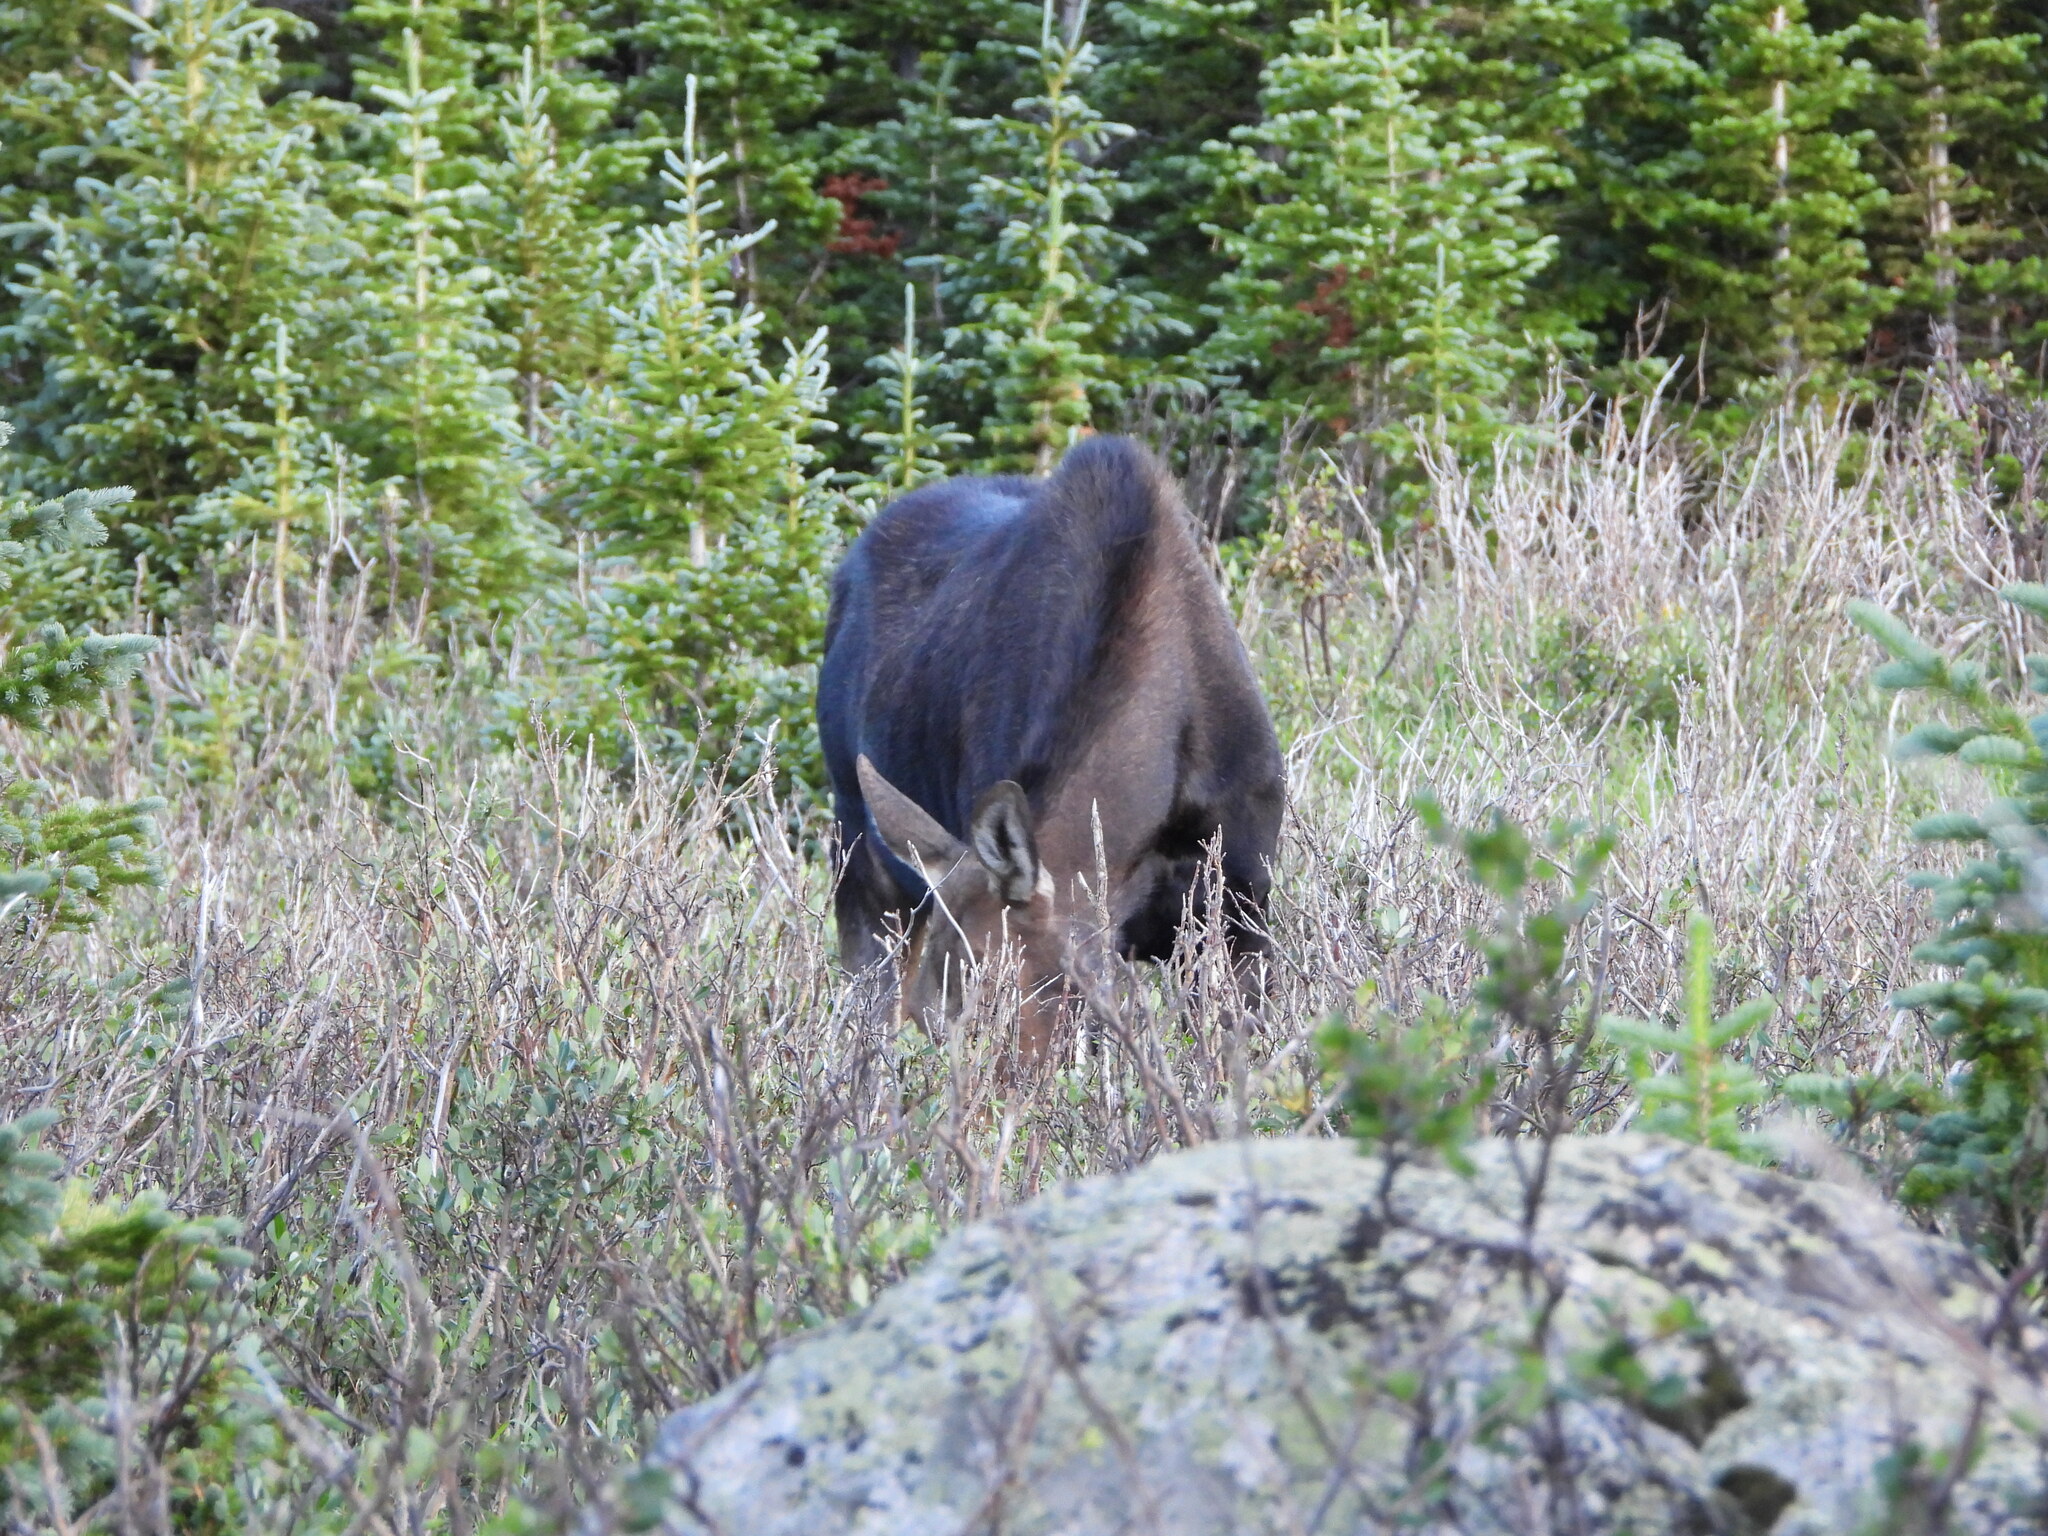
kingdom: Animalia
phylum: Chordata
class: Mammalia
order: Artiodactyla
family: Cervidae
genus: Alces
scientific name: Alces alces
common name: Moose
